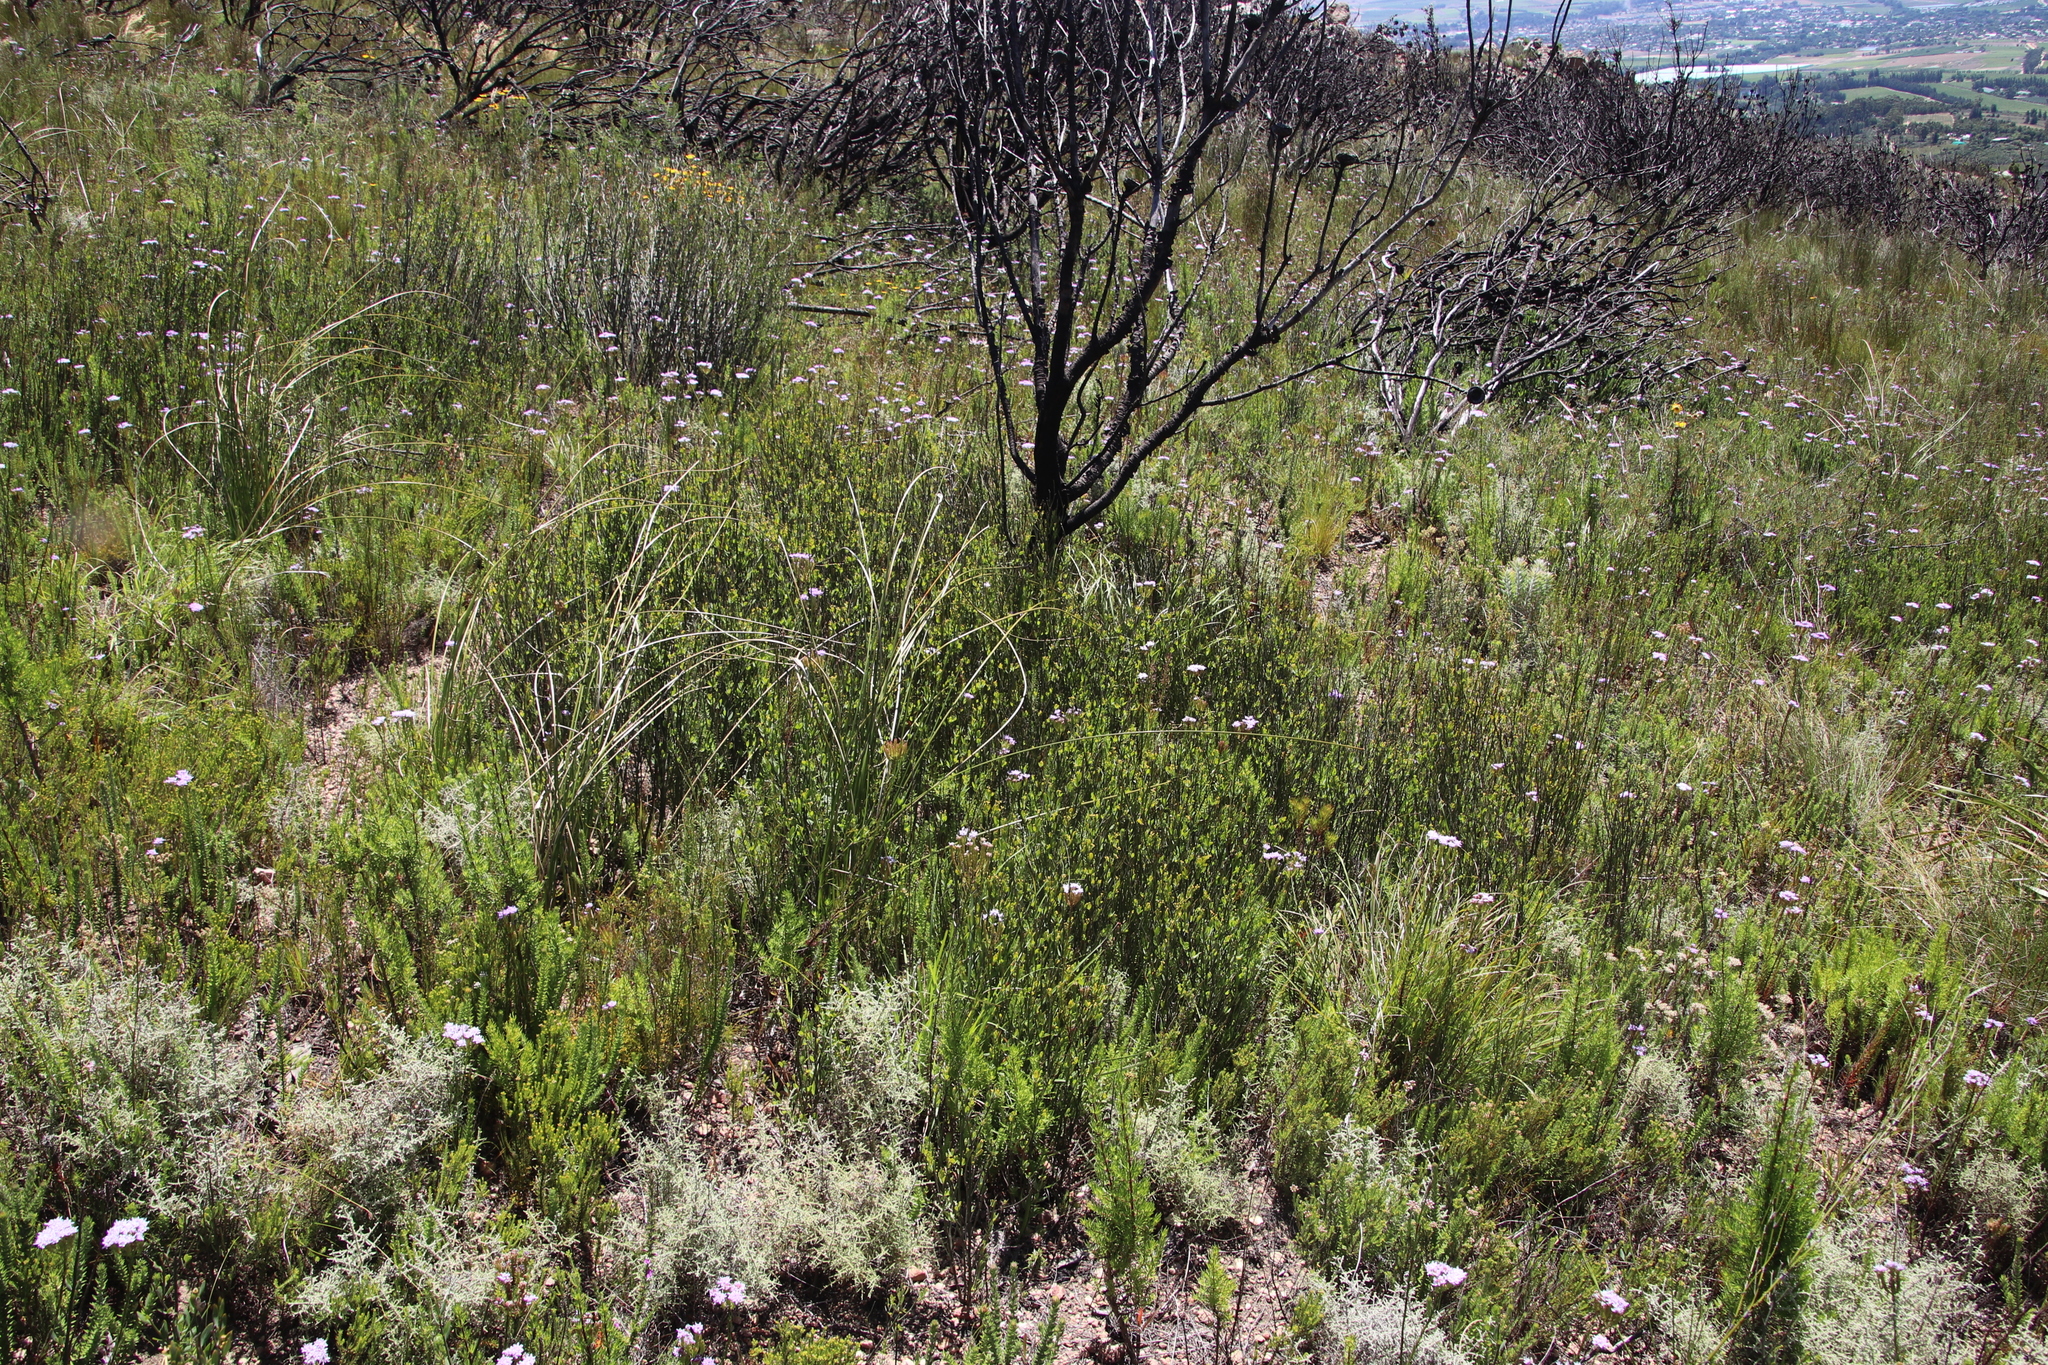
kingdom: Plantae
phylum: Tracheophyta
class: Magnoliopsida
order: Solanales
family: Montiniaceae
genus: Montinia
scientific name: Montinia caryophyllacea
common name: Wild clove-bush
